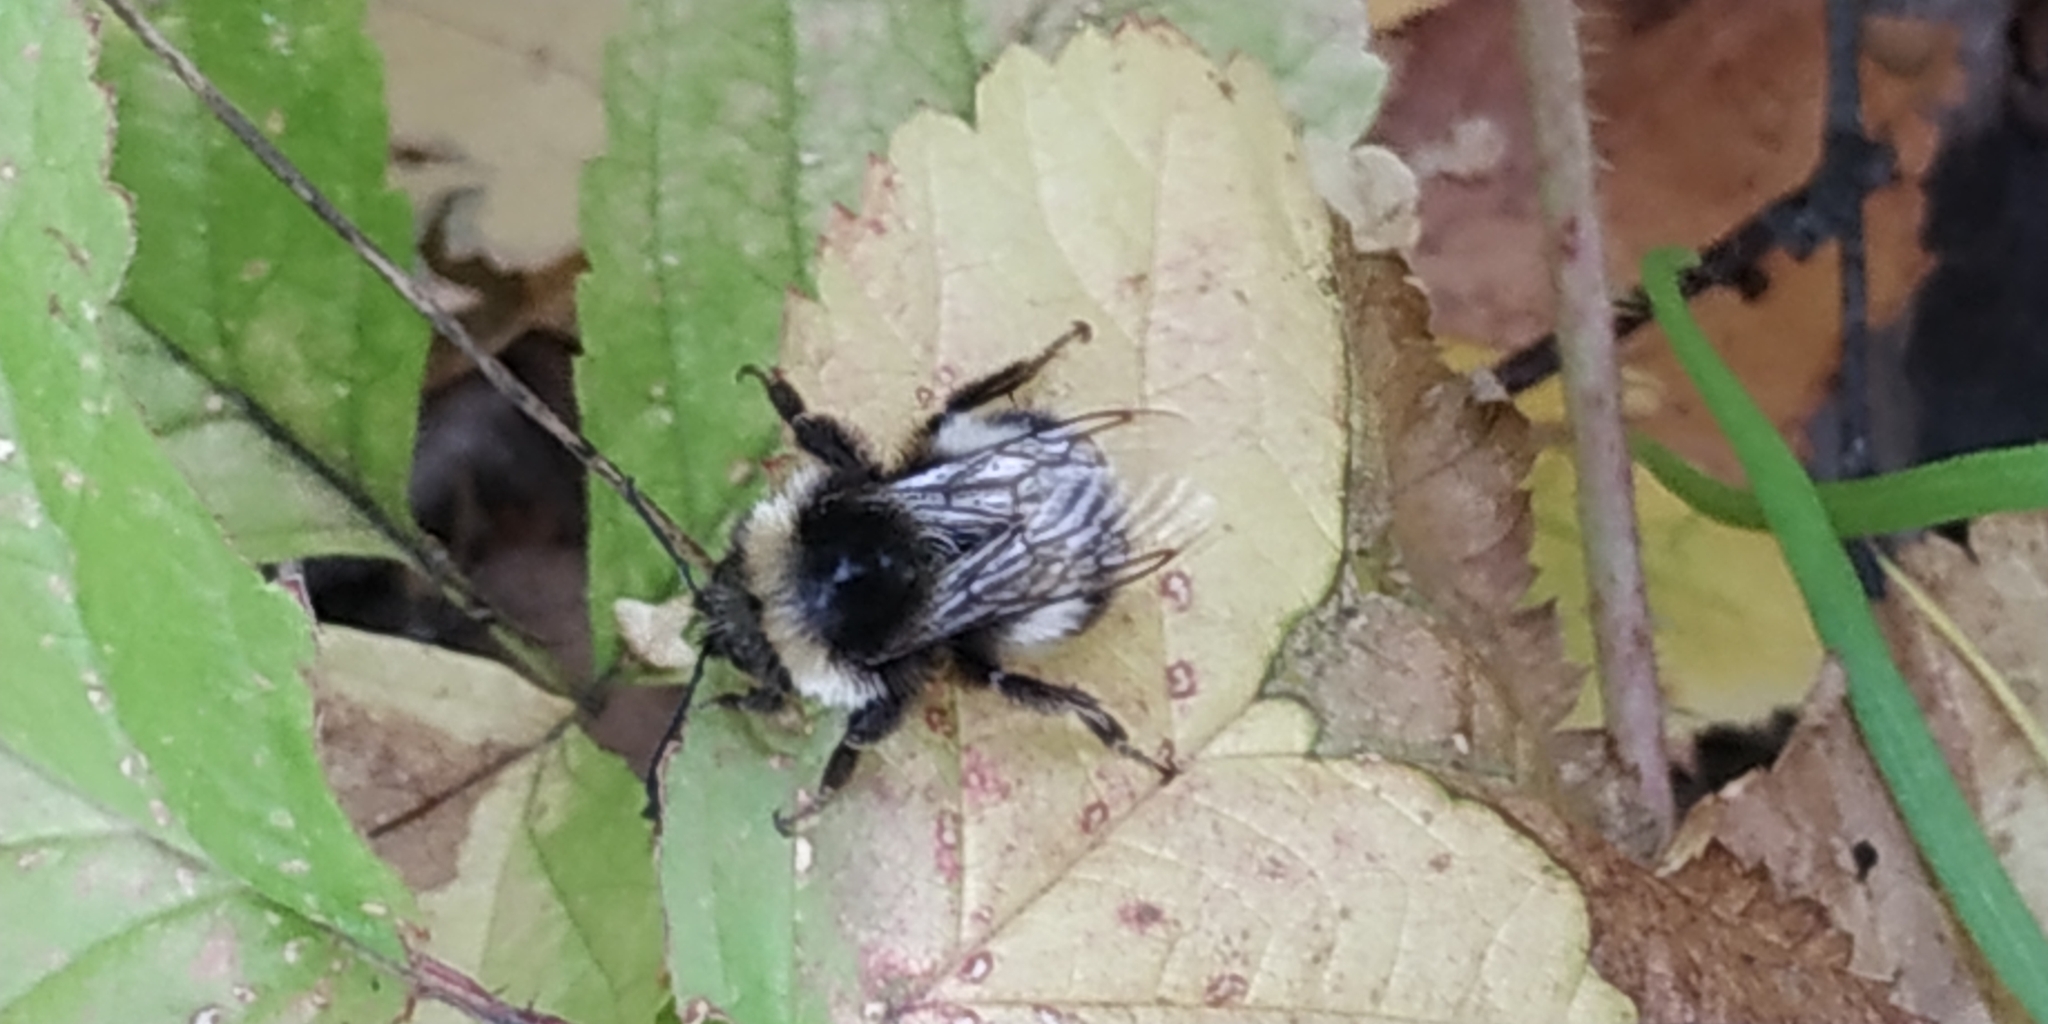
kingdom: Animalia
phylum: Arthropoda
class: Insecta
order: Hymenoptera
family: Apidae
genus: Bombus
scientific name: Bombus
